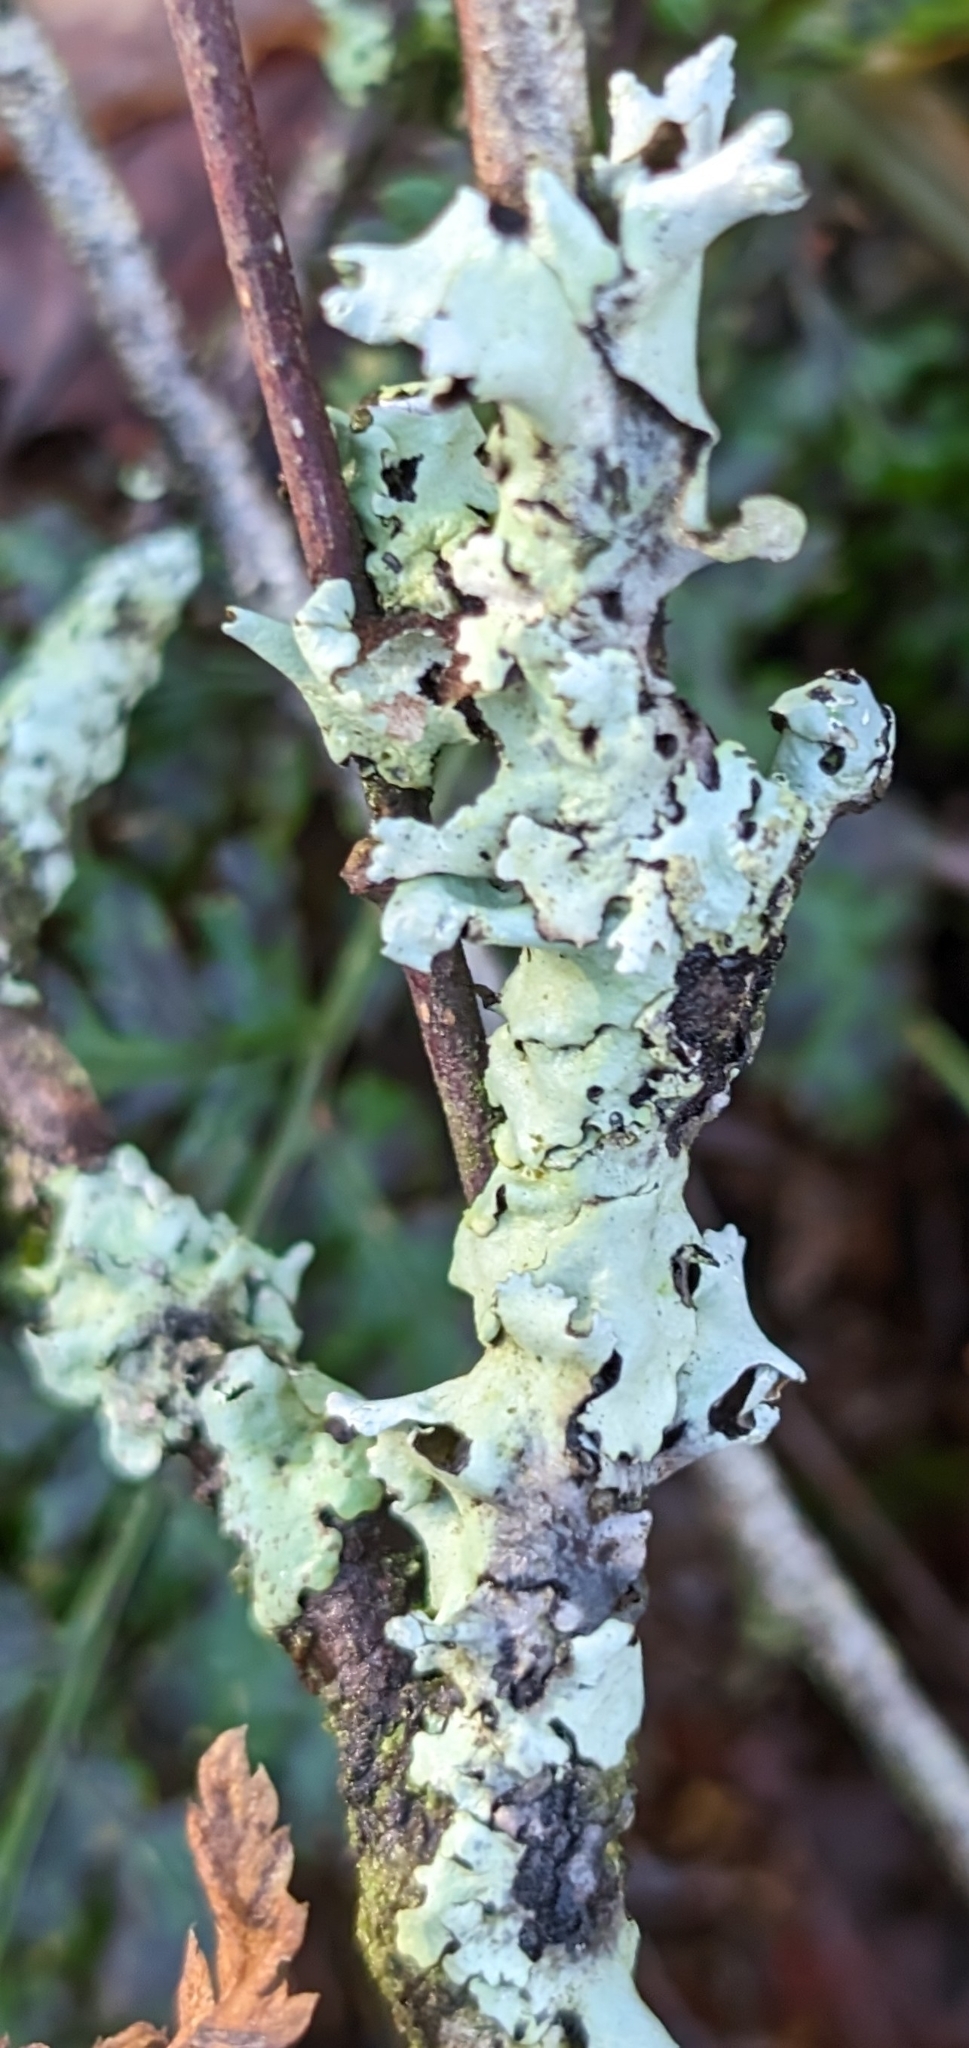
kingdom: Fungi
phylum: Ascomycota
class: Lecanoromycetes
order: Lecanorales
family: Parmeliaceae
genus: Hypotrachyna
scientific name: Hypotrachyna revoluta
